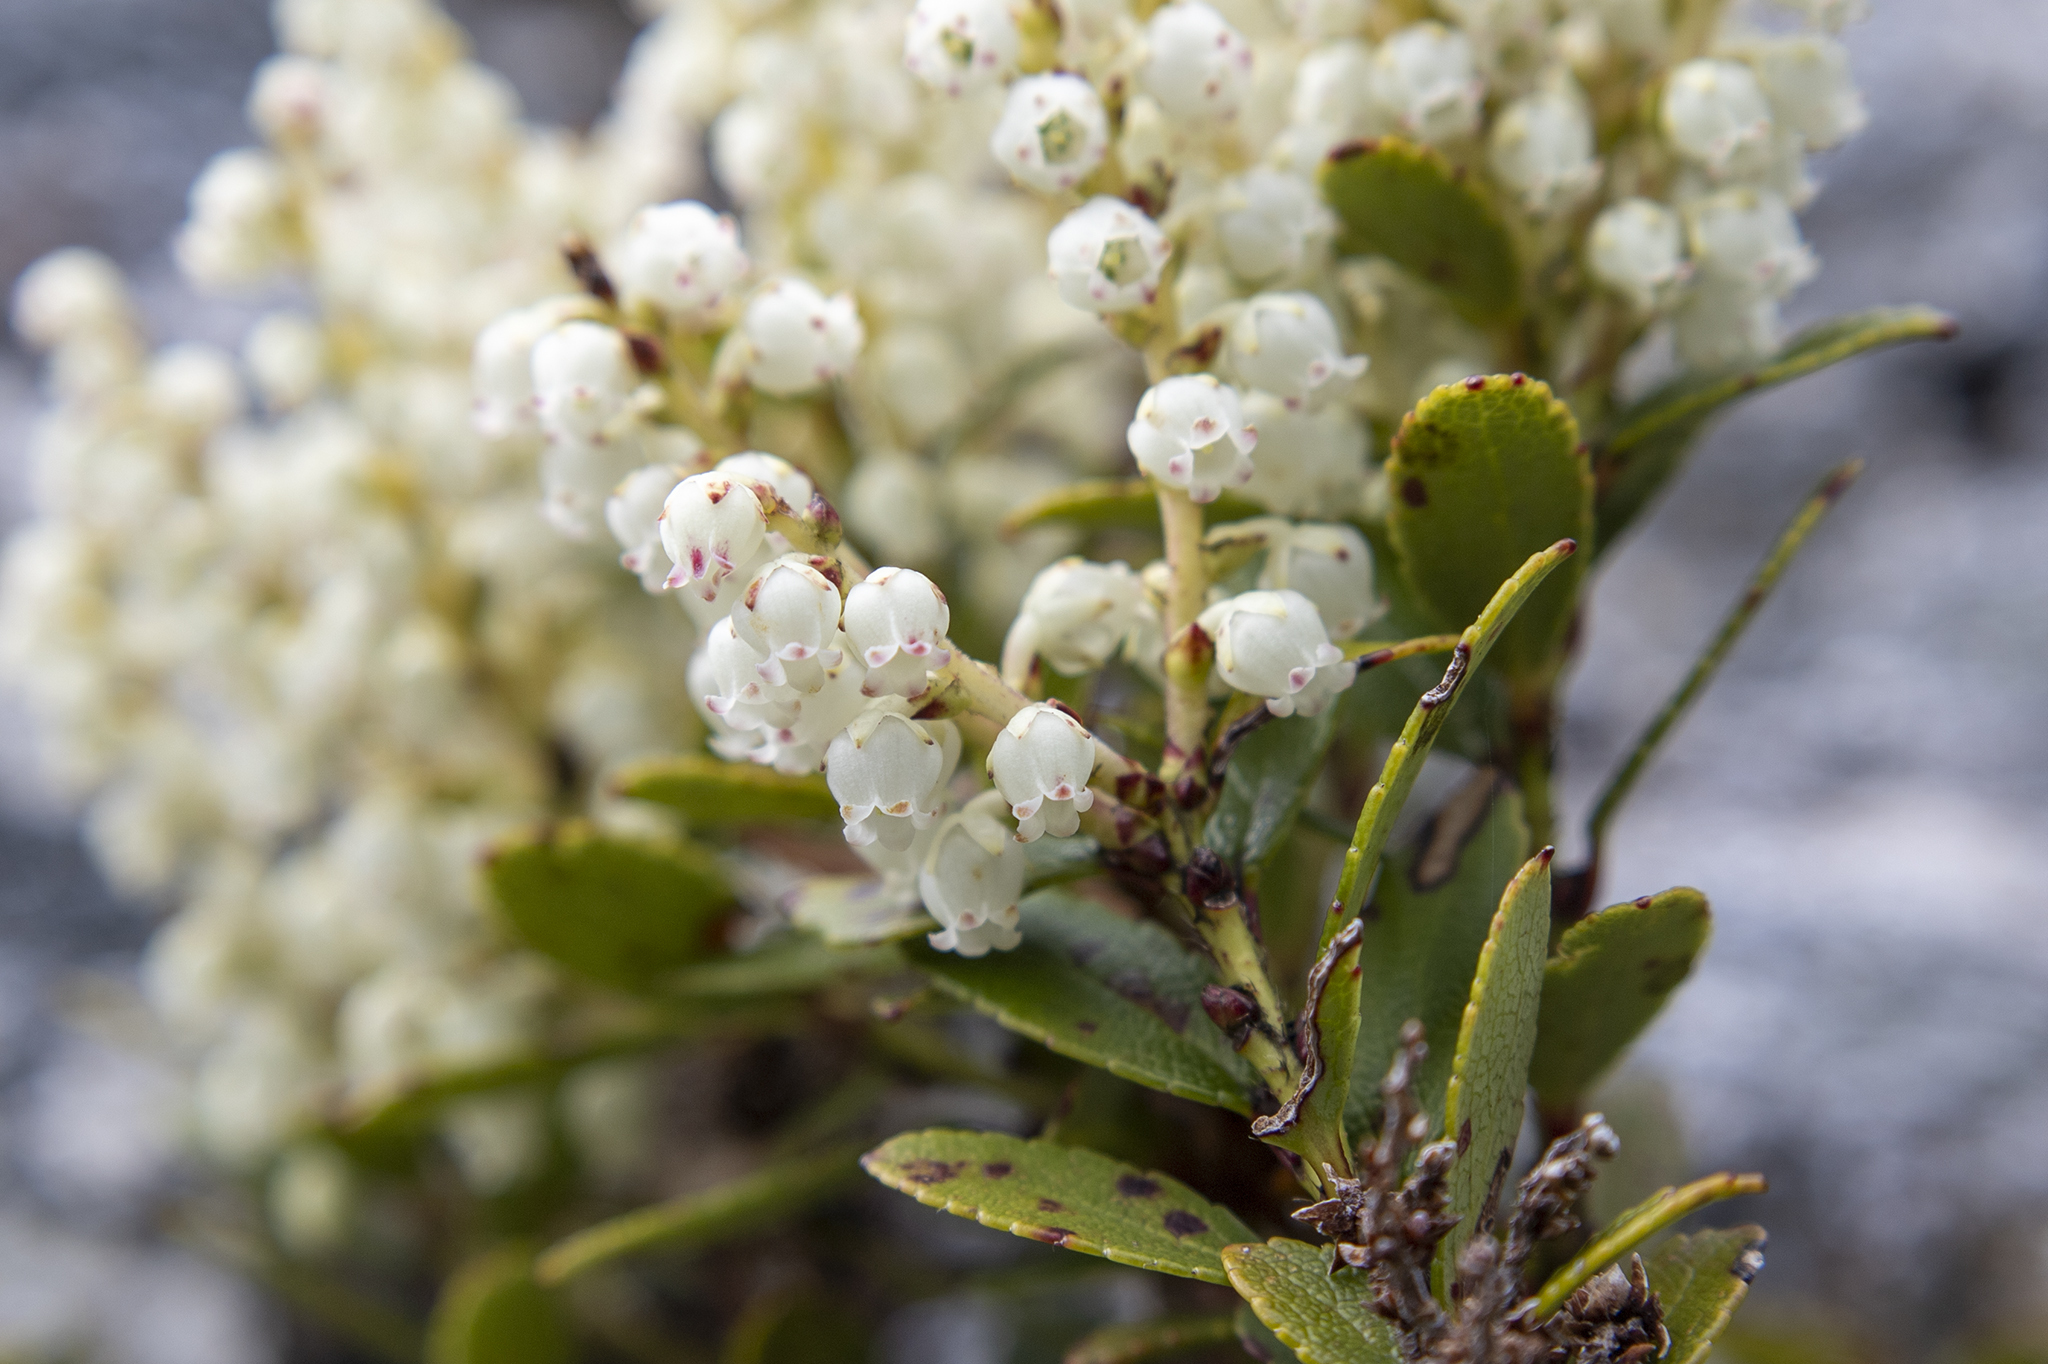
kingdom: Plantae
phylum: Tracheophyta
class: Magnoliopsida
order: Ericales
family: Ericaceae
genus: Gaultheria
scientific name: Gaultheria crassa
